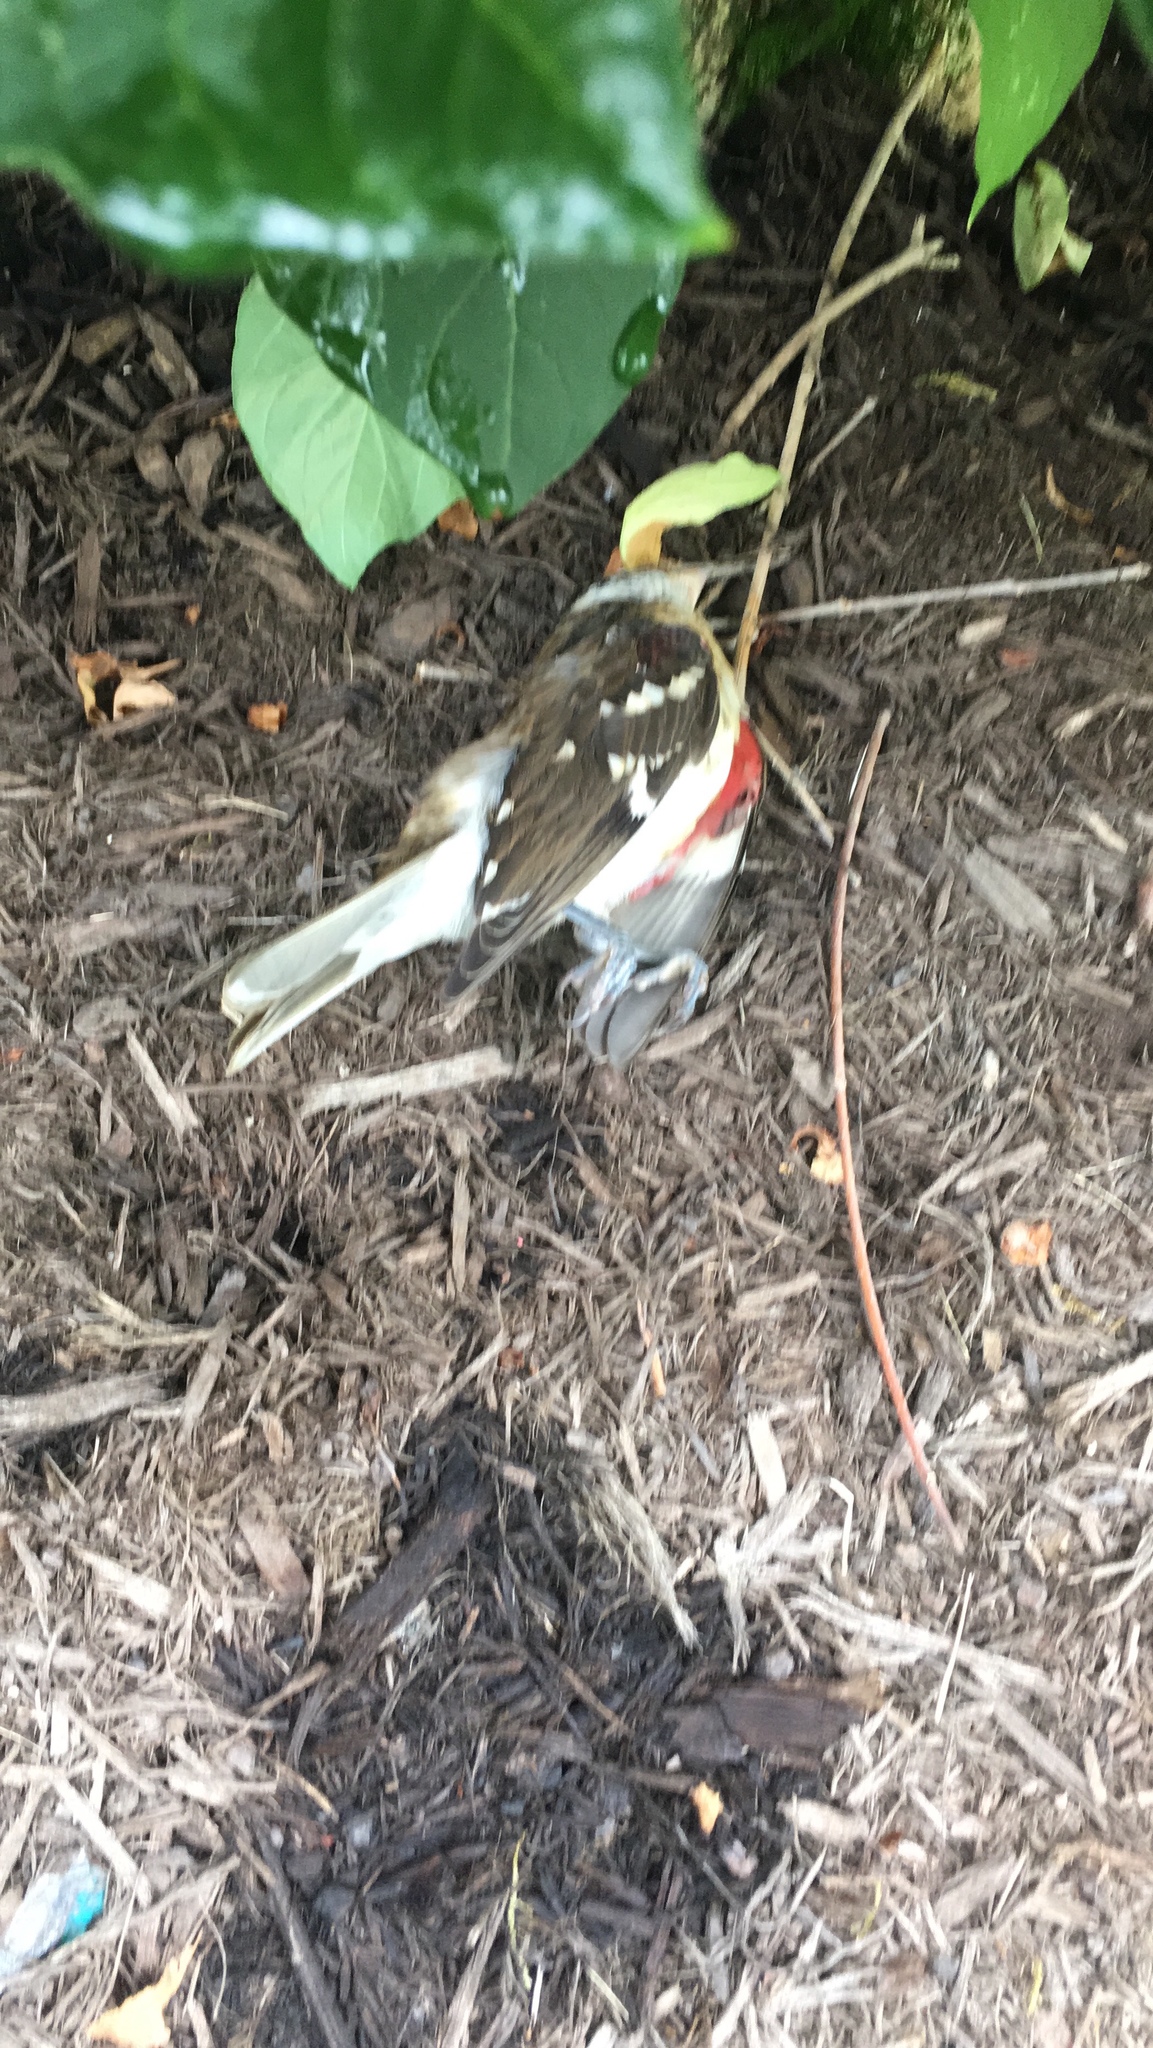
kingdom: Animalia
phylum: Chordata
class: Aves
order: Passeriformes
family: Cardinalidae
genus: Pheucticus
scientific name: Pheucticus ludovicianus
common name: Rose-breasted grosbeak
